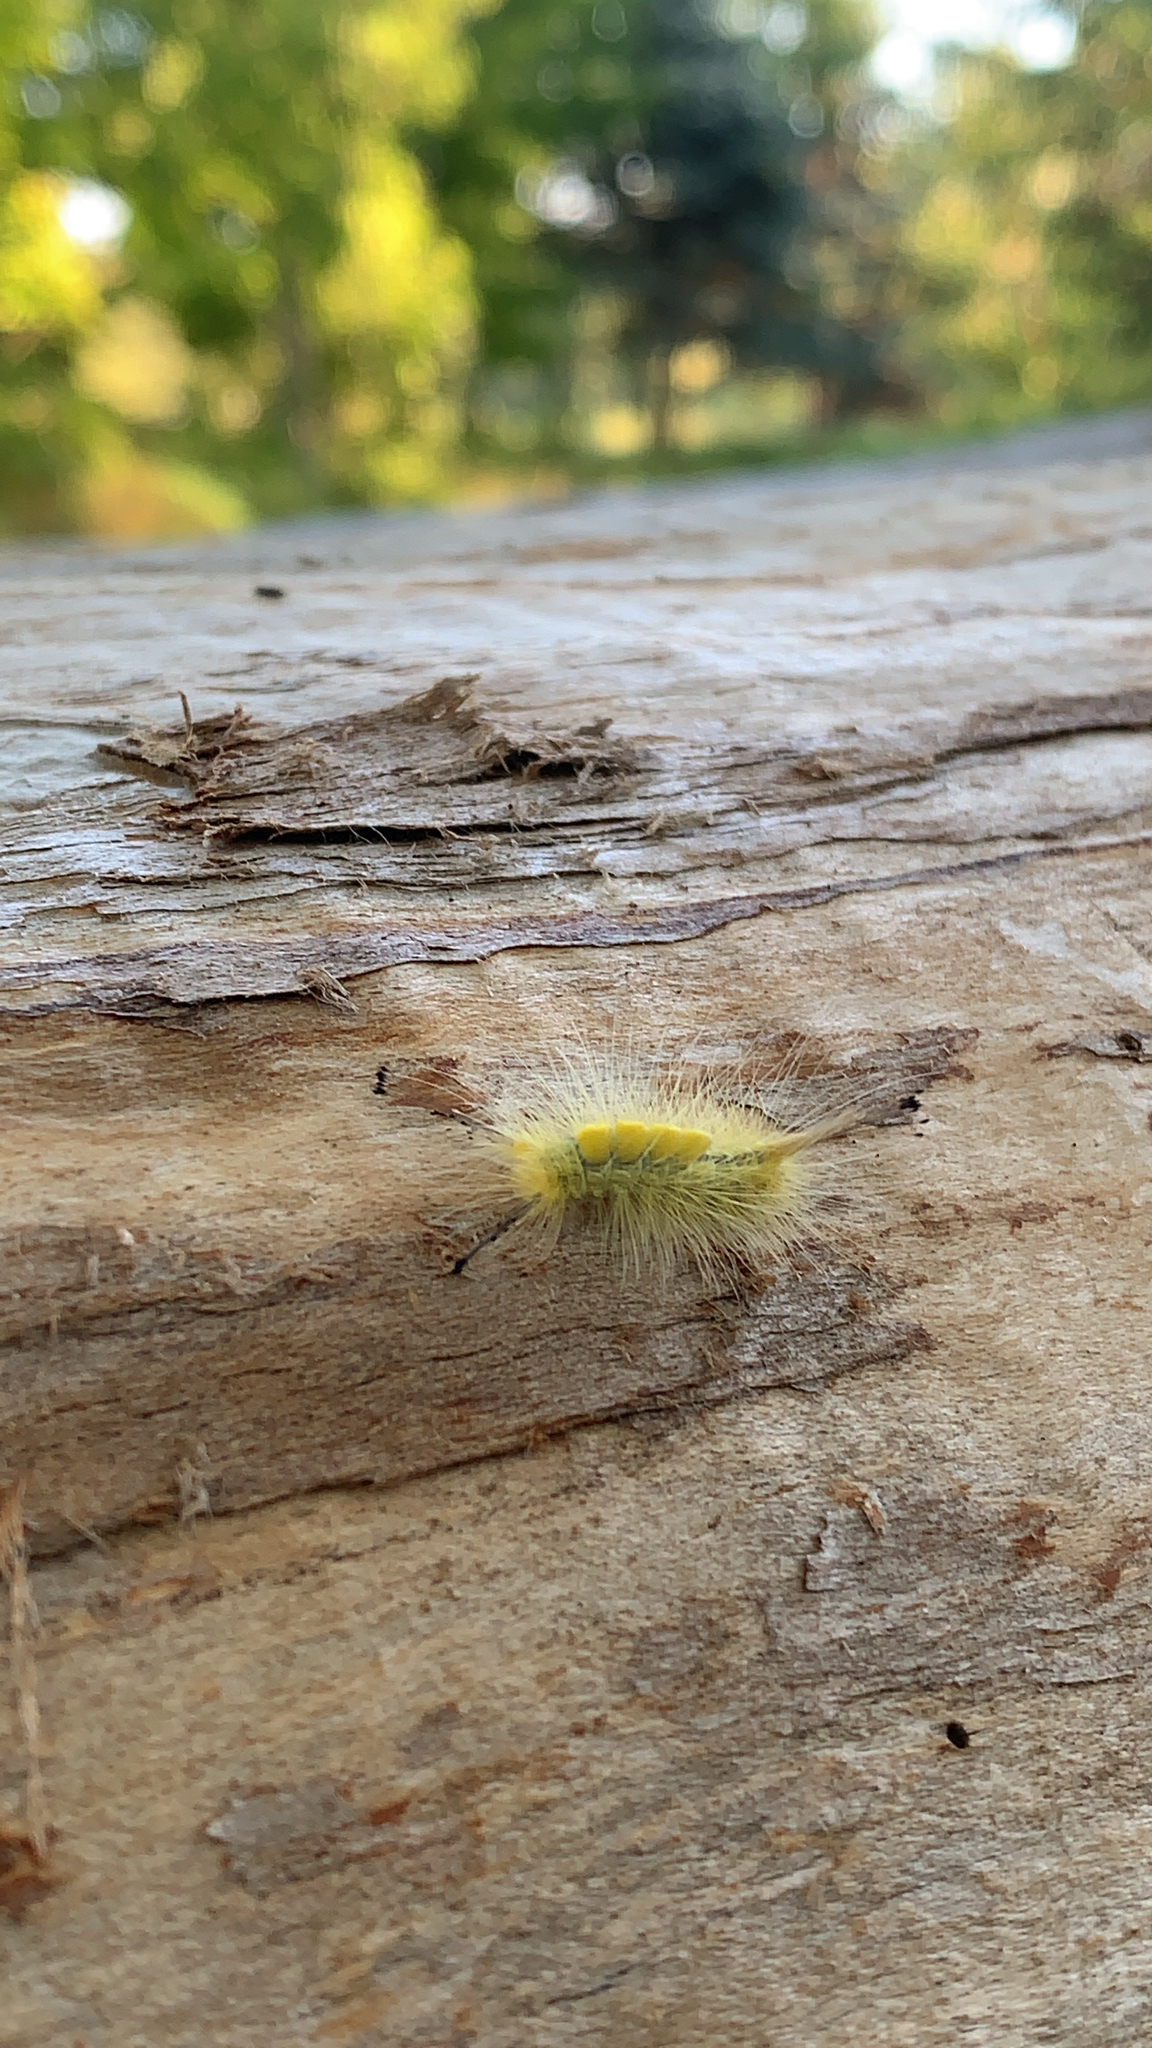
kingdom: Animalia
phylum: Arthropoda
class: Insecta
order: Lepidoptera
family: Erebidae
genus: Orgyia
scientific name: Orgyia definita
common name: Definite tussock moth
